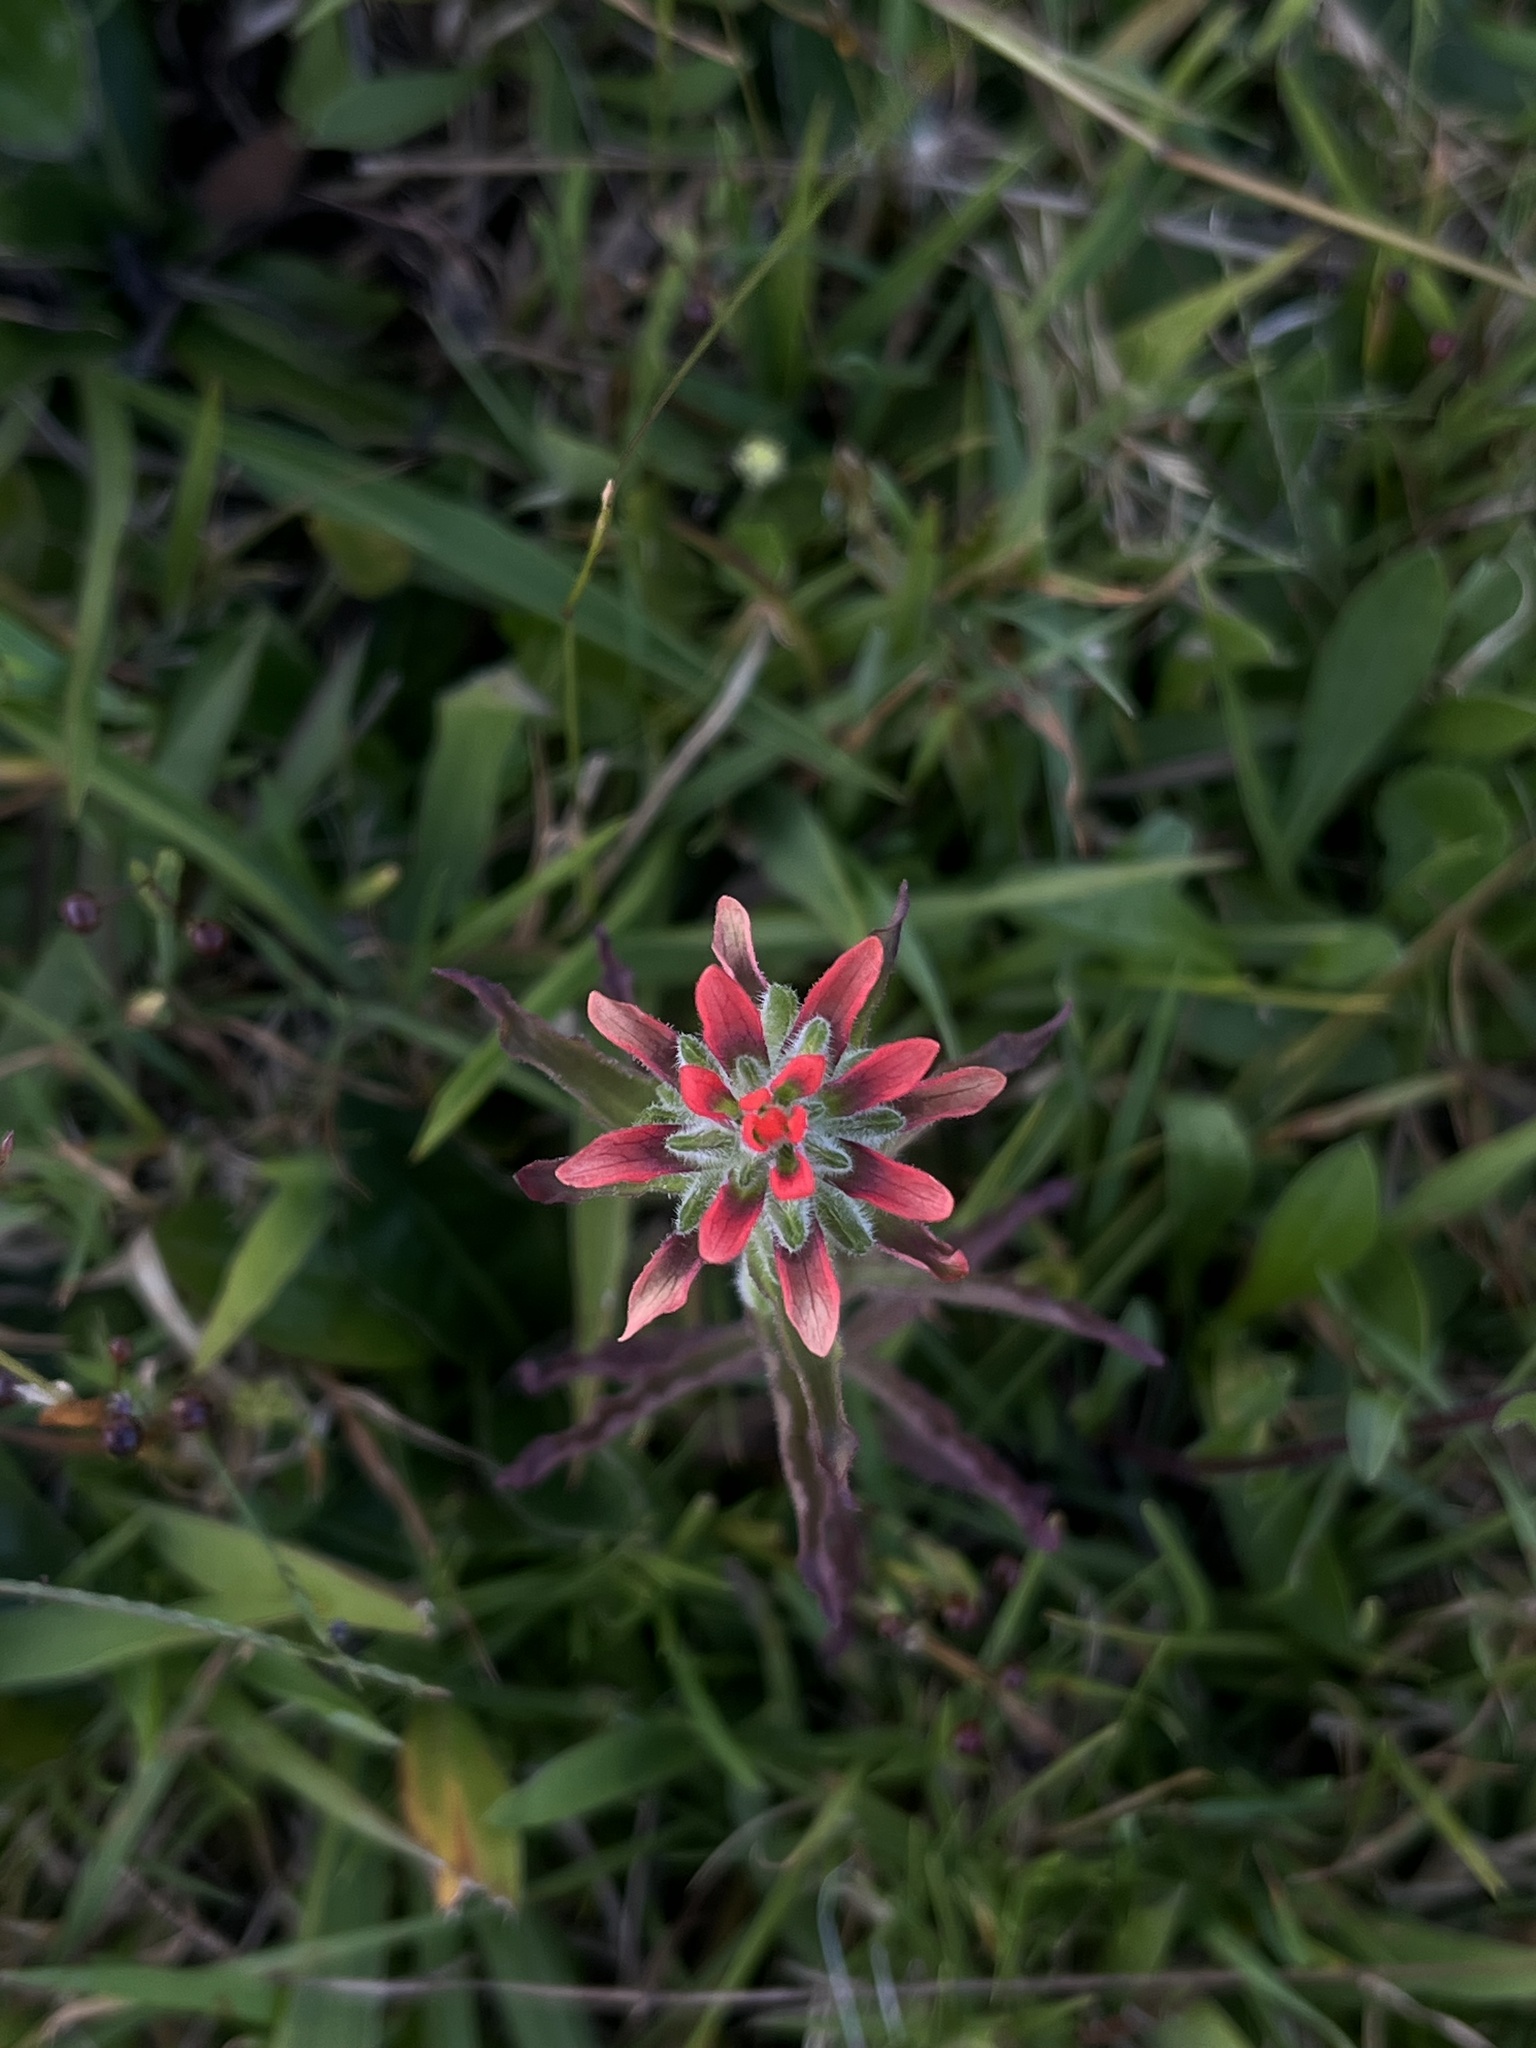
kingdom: Plantae
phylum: Tracheophyta
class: Magnoliopsida
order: Lamiales
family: Orobanchaceae
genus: Castilleja
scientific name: Castilleja arvensis
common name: Indian paintbrush
